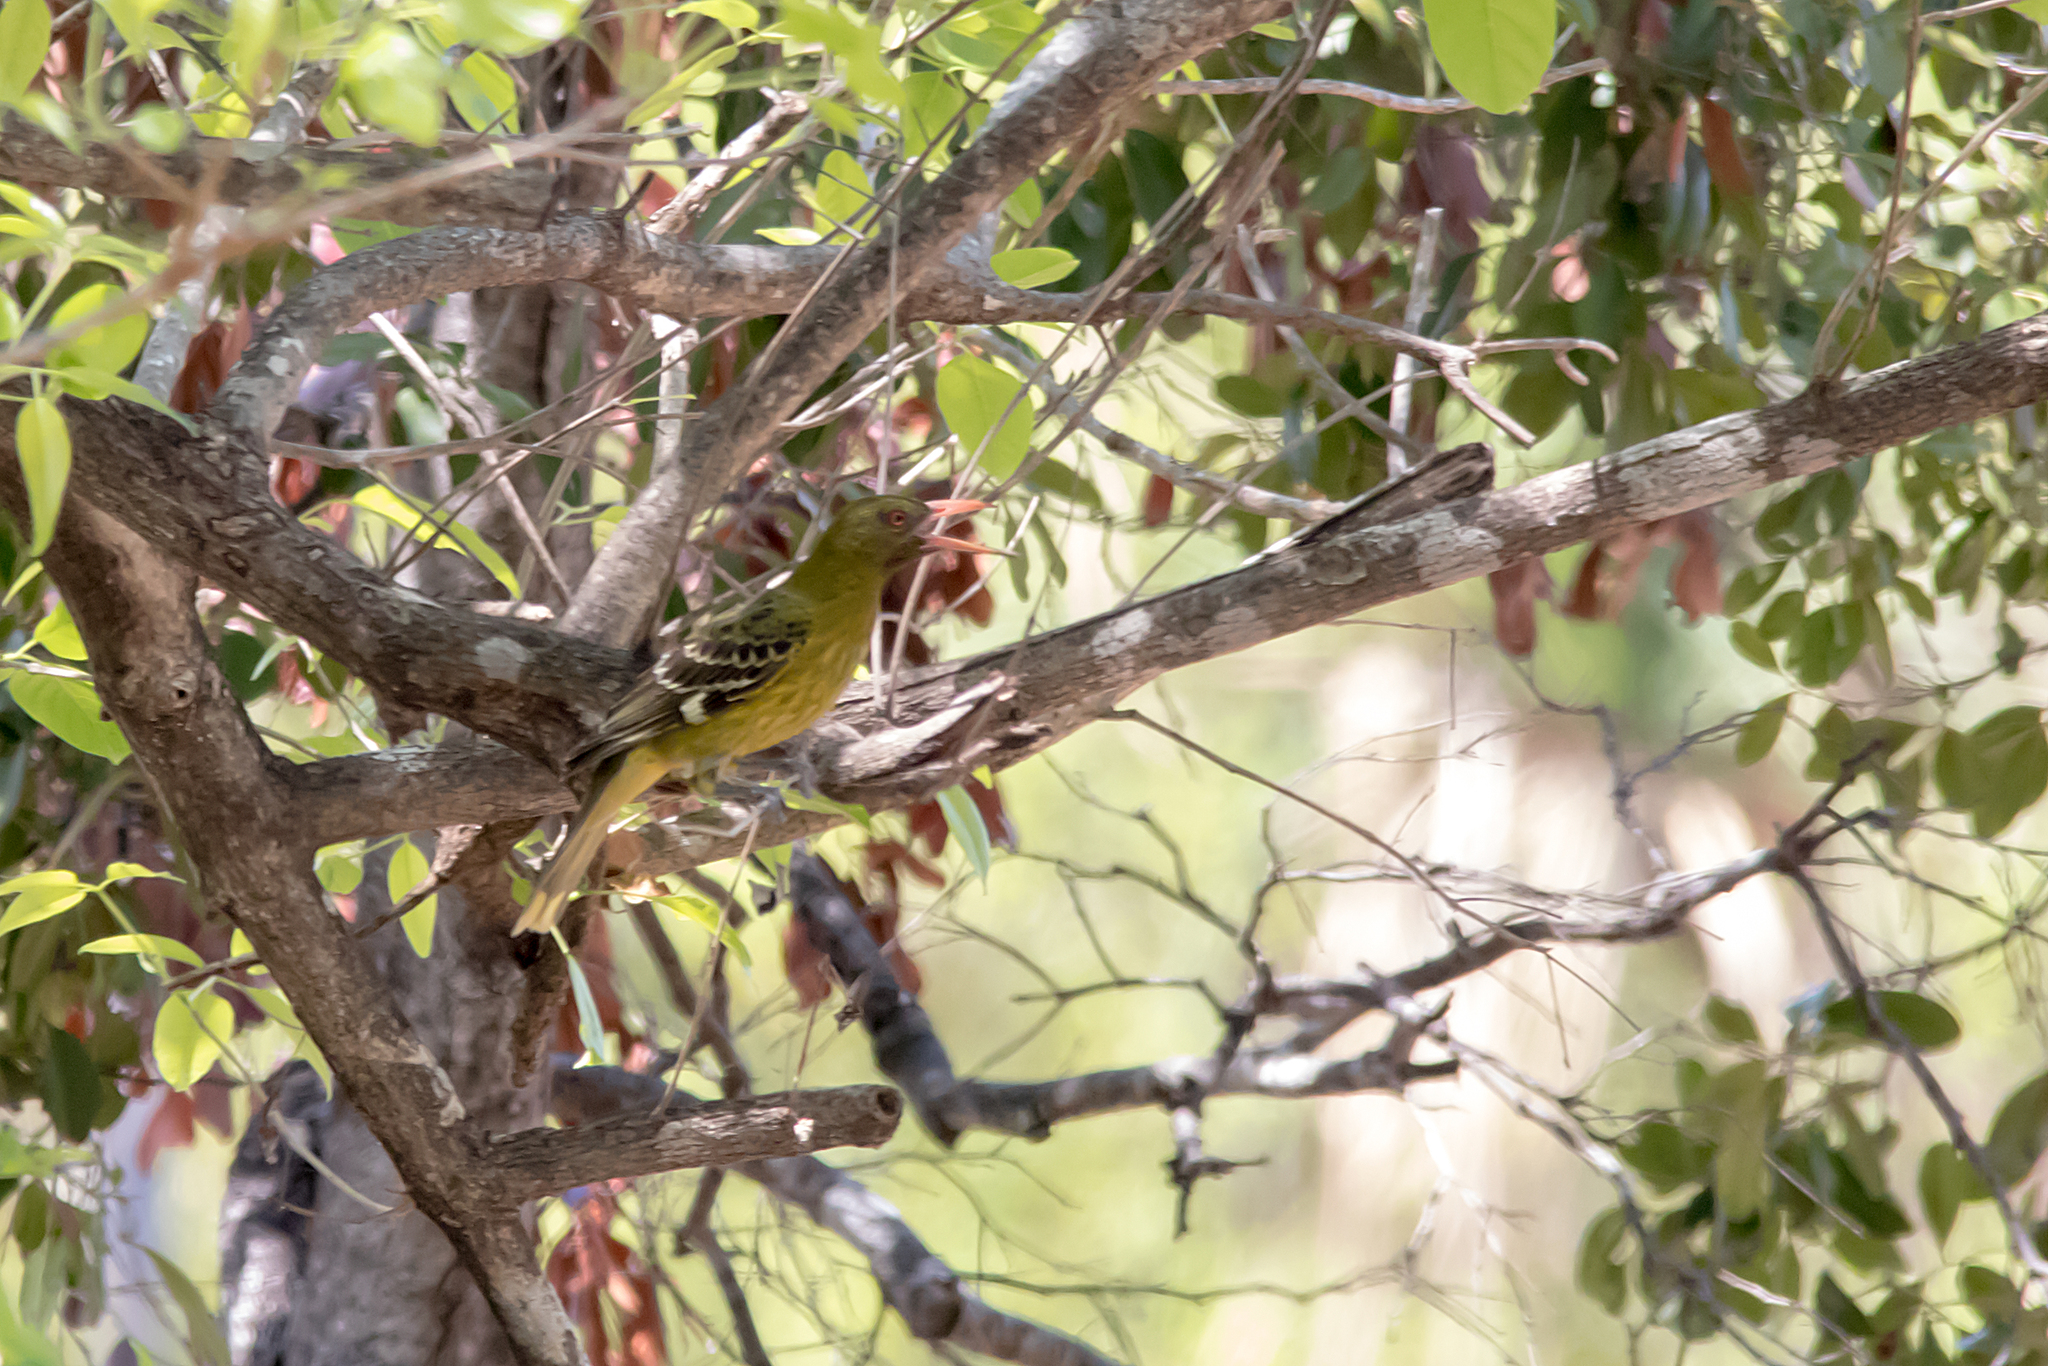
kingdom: Animalia
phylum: Chordata
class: Aves
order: Passeriformes
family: Oriolidae
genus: Oriolus
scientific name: Oriolus flavocinctus
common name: Green oriole
